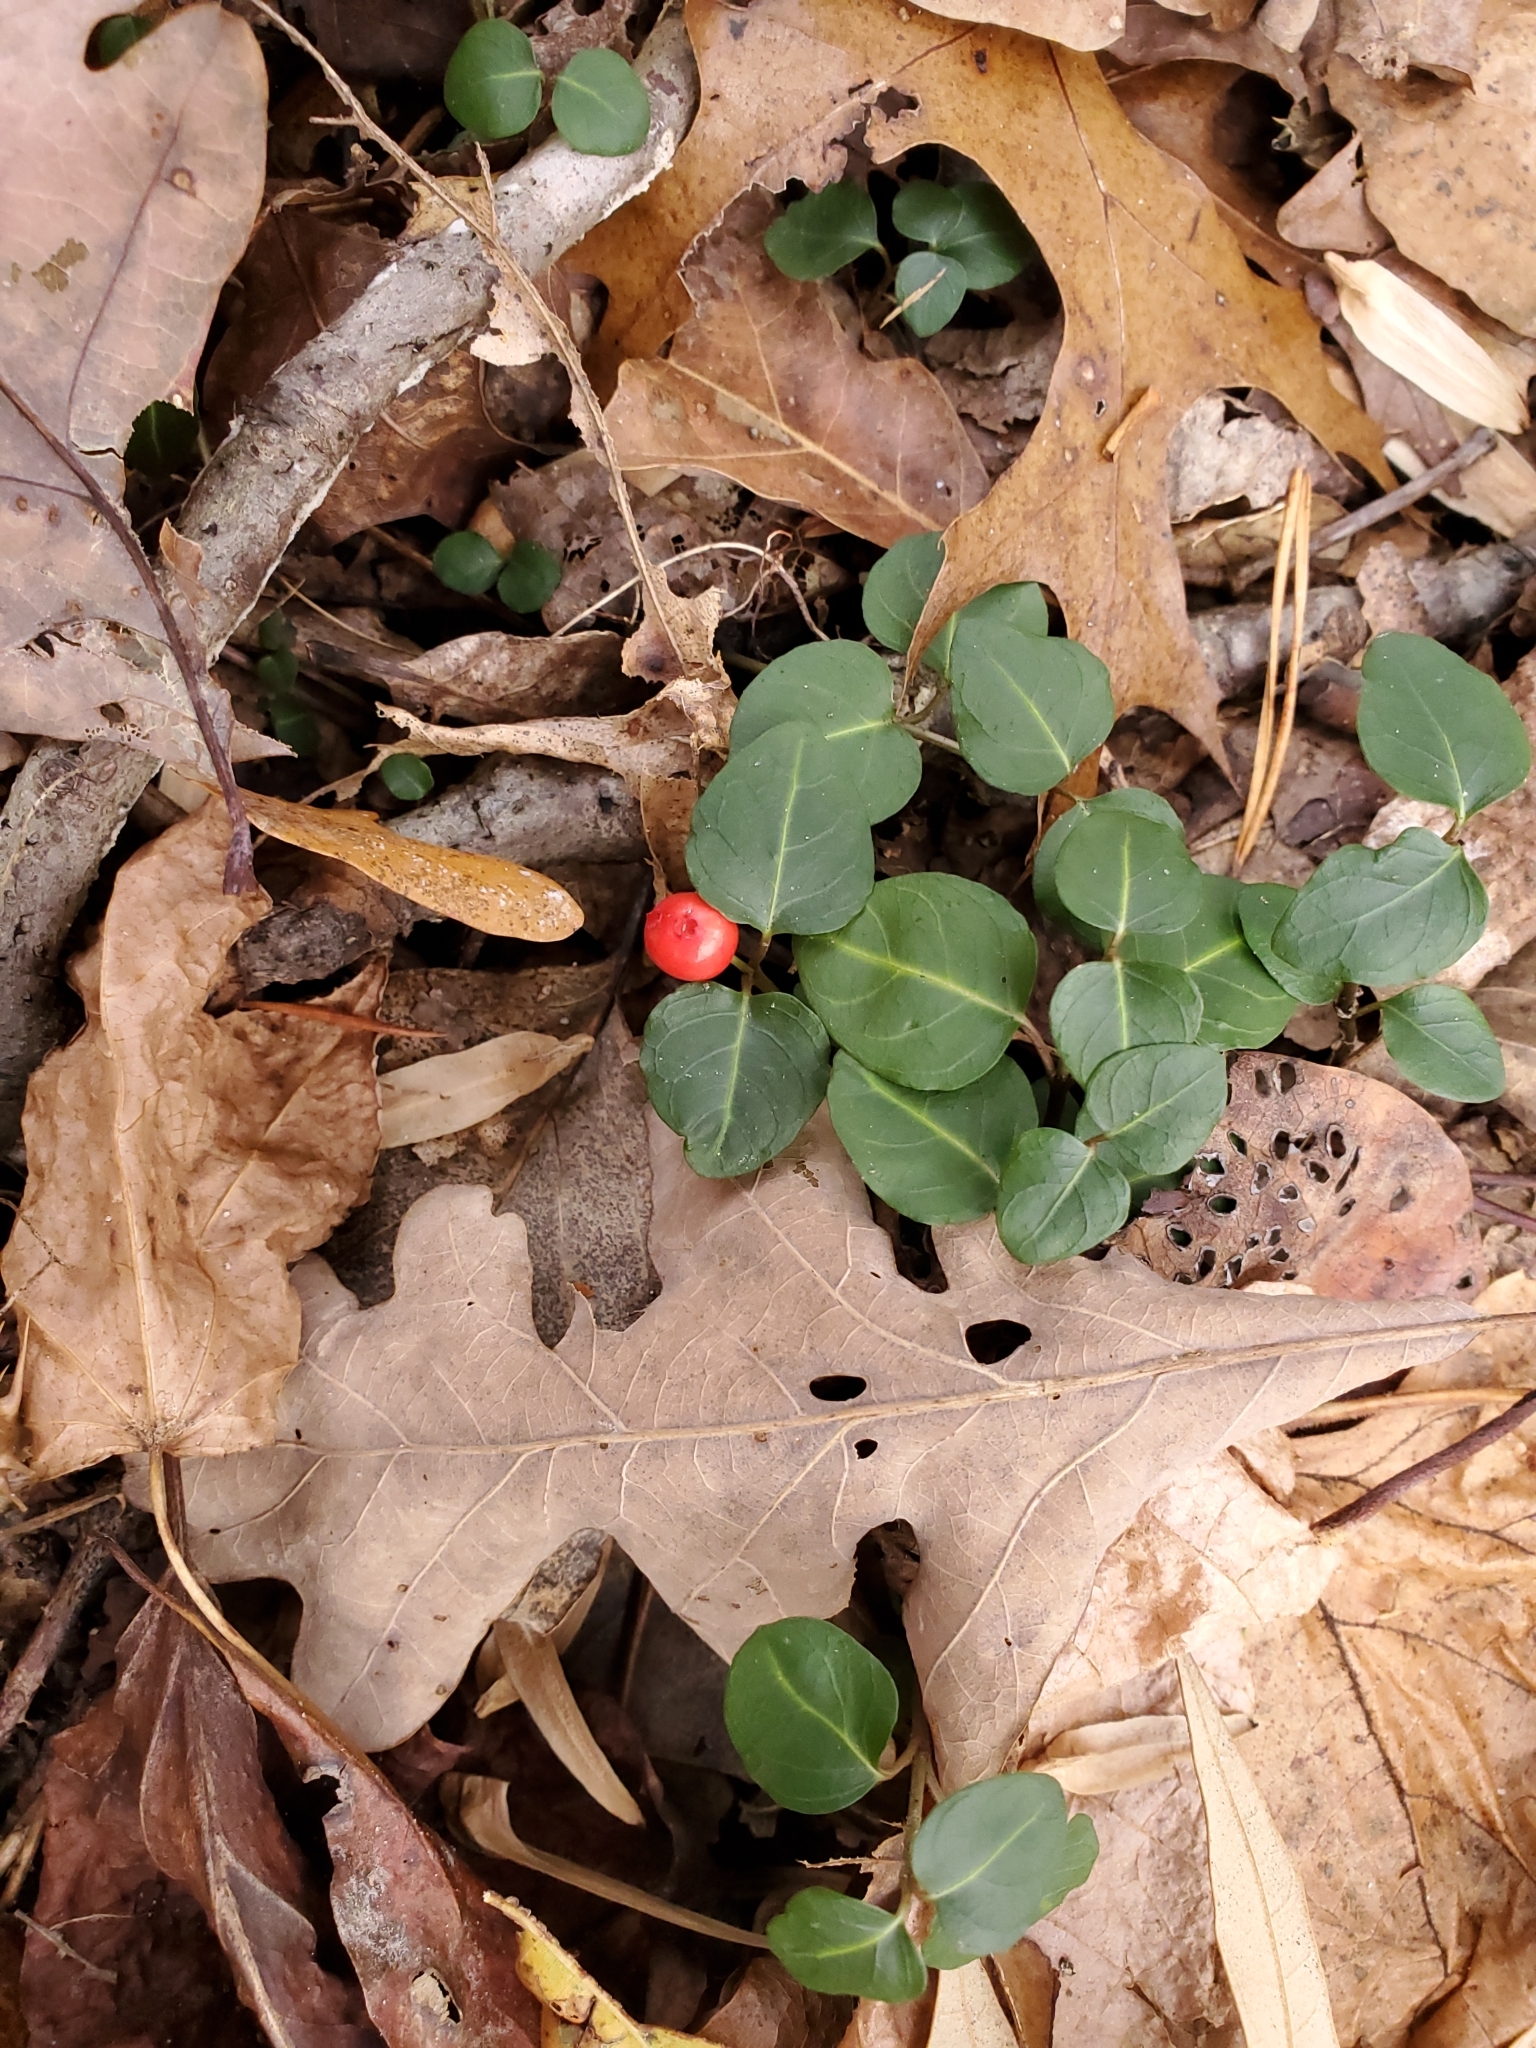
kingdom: Plantae
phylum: Tracheophyta
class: Magnoliopsida
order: Gentianales
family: Rubiaceae
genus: Mitchella
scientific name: Mitchella repens
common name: Partridge-berry
